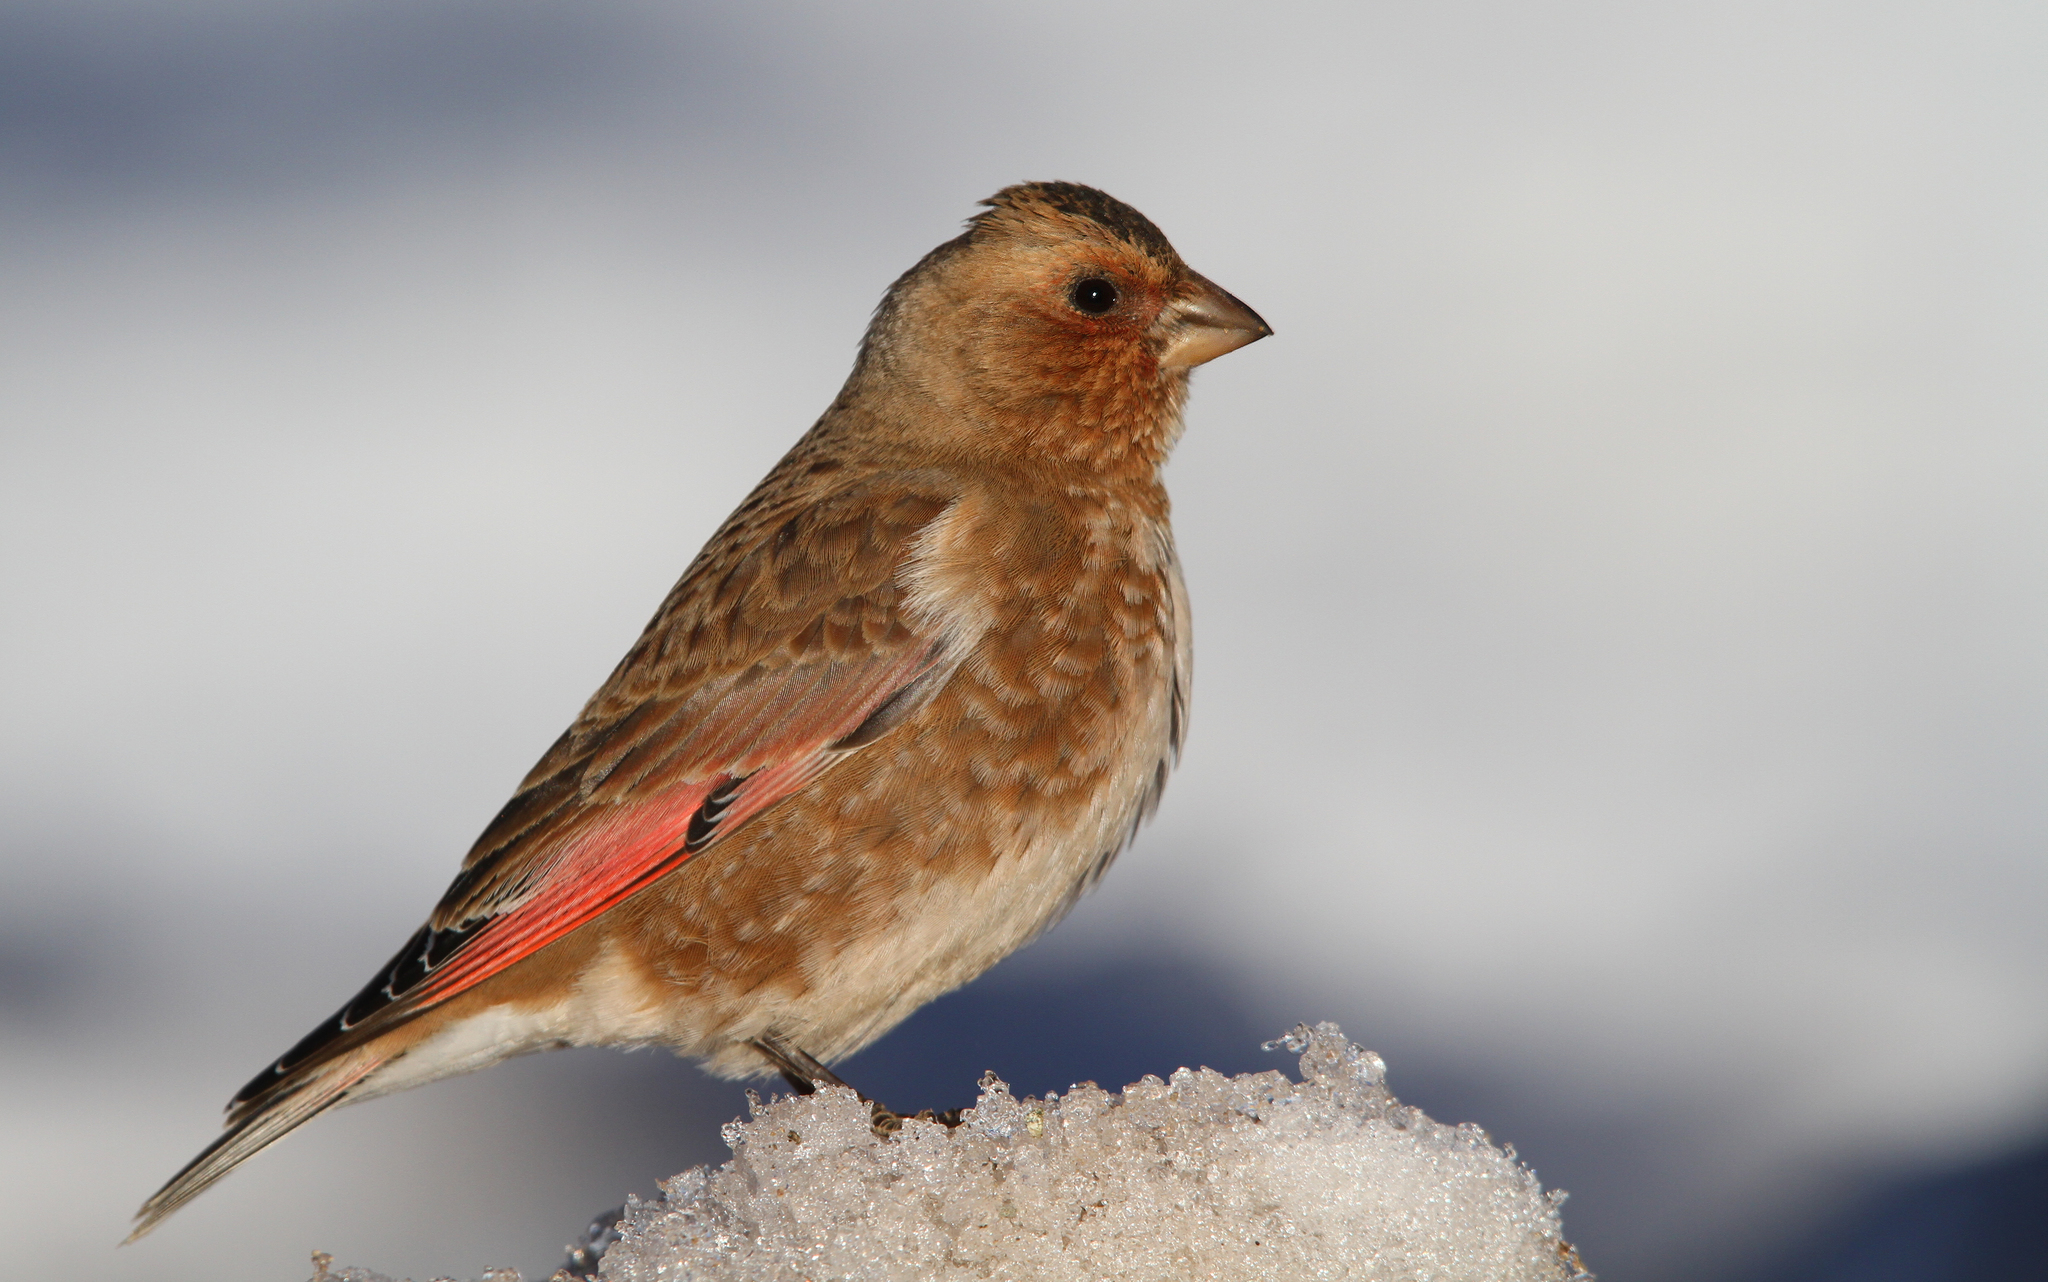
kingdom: Animalia
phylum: Chordata
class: Aves
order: Passeriformes
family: Fringillidae
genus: Rhodopechys
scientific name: Rhodopechys sanguineus
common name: Crimson-winged finch
